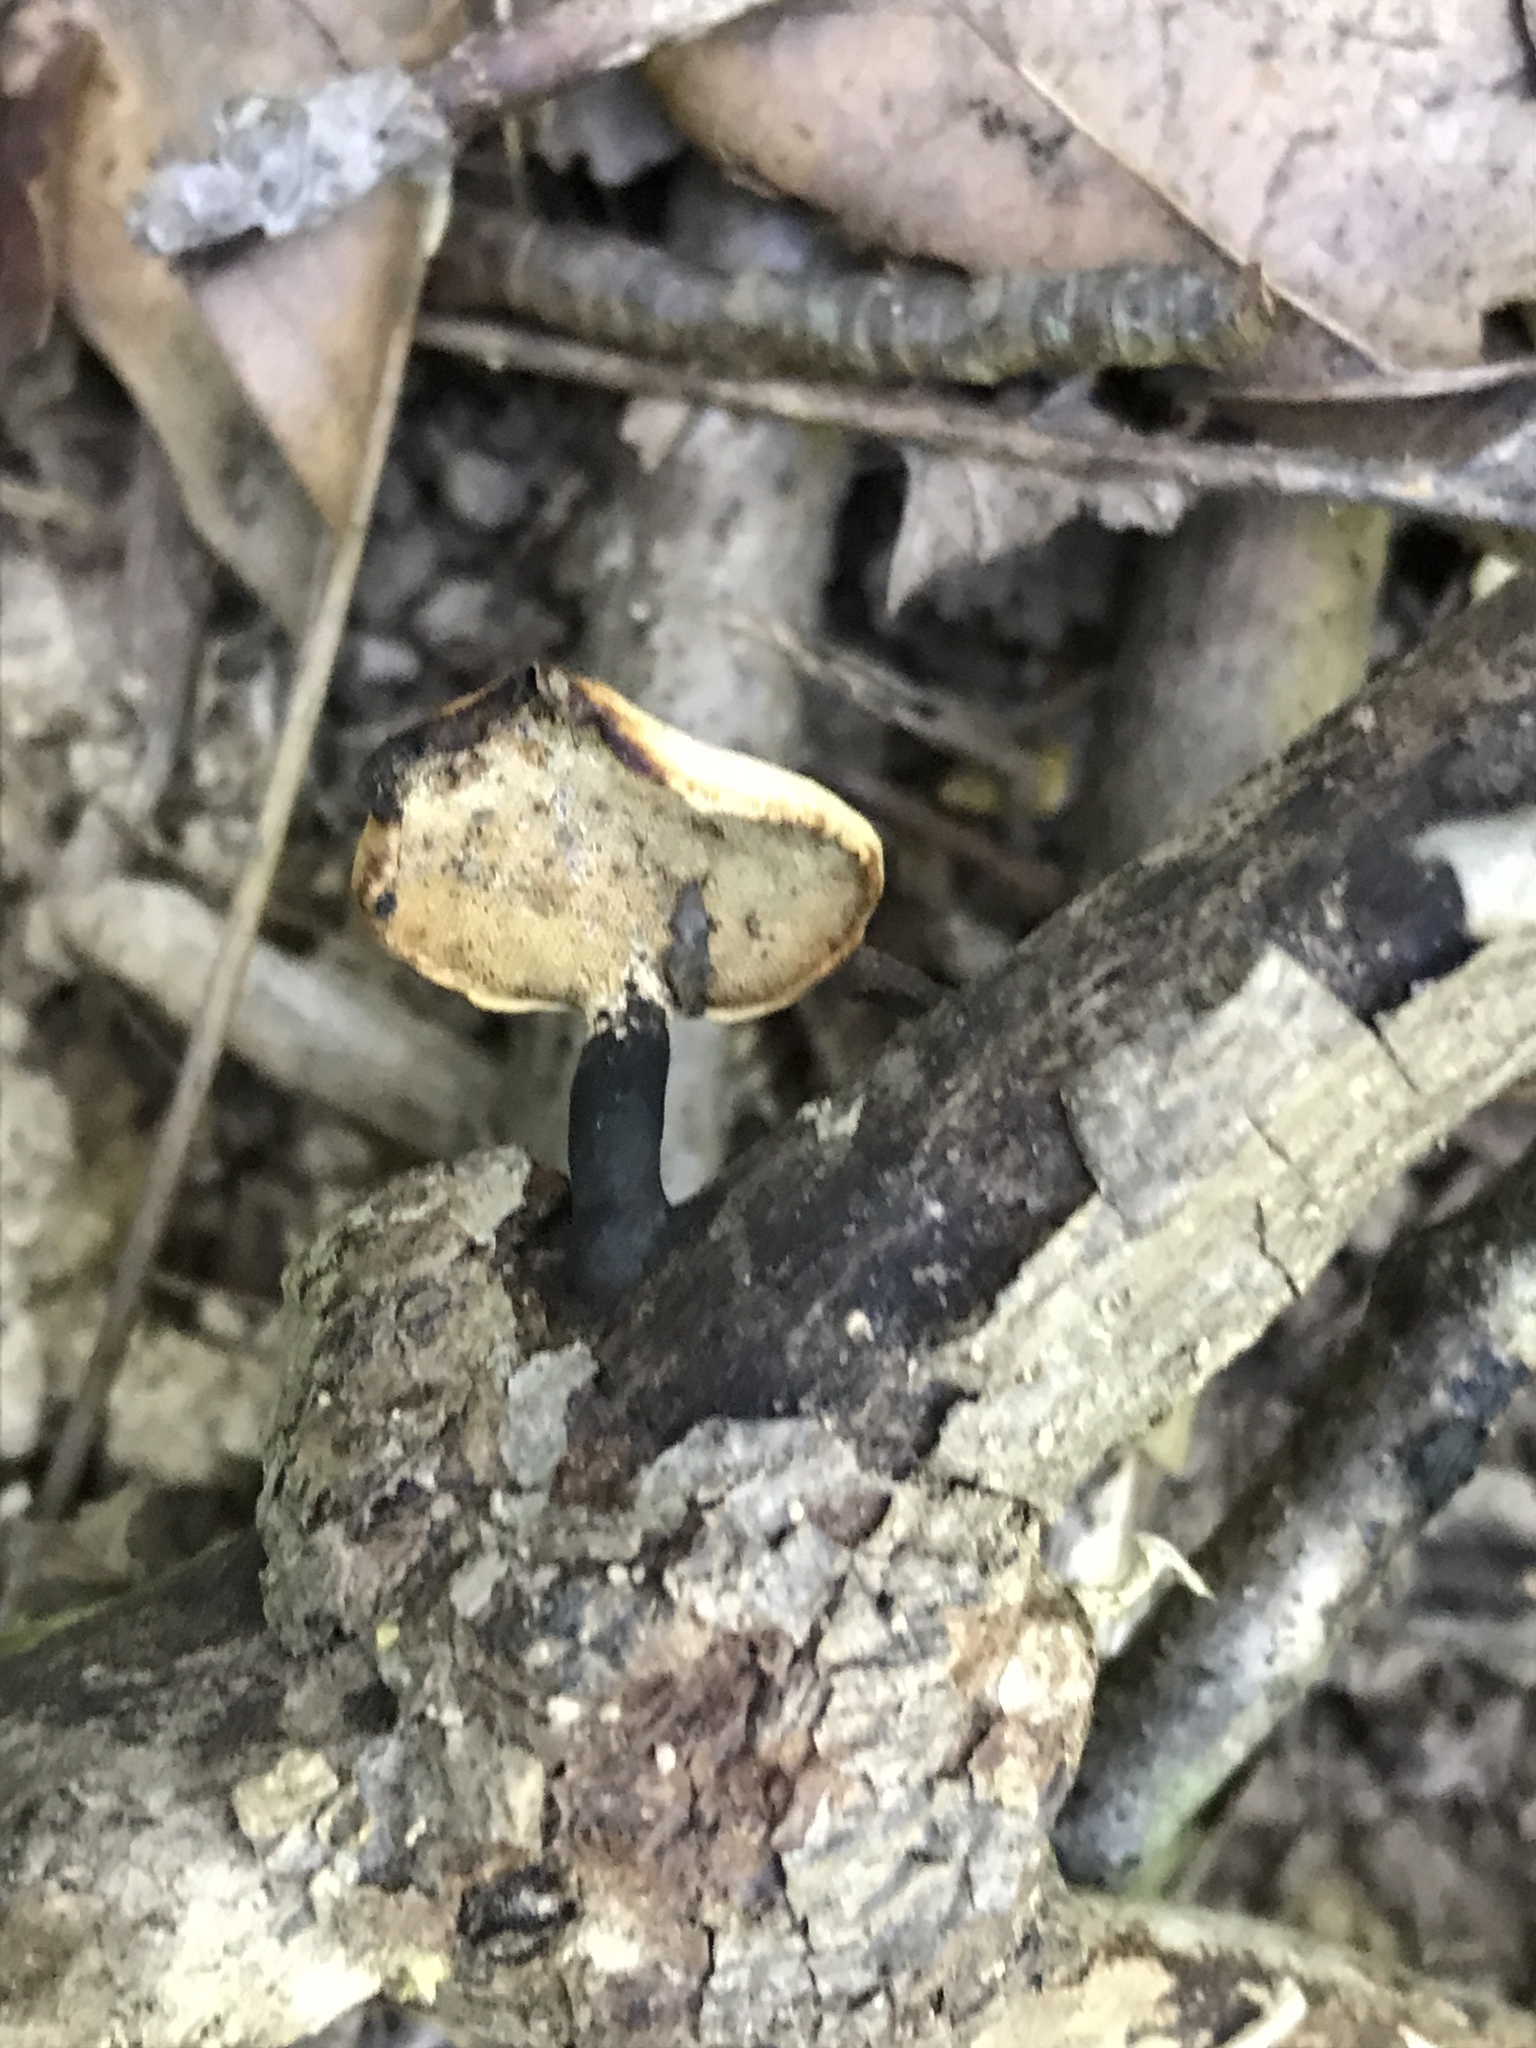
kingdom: Fungi
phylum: Basidiomycota
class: Agaricomycetes
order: Polyporales
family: Polyporaceae
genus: Cerioporus
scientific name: Cerioporus leptocephalus
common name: Blackfoot polypore
